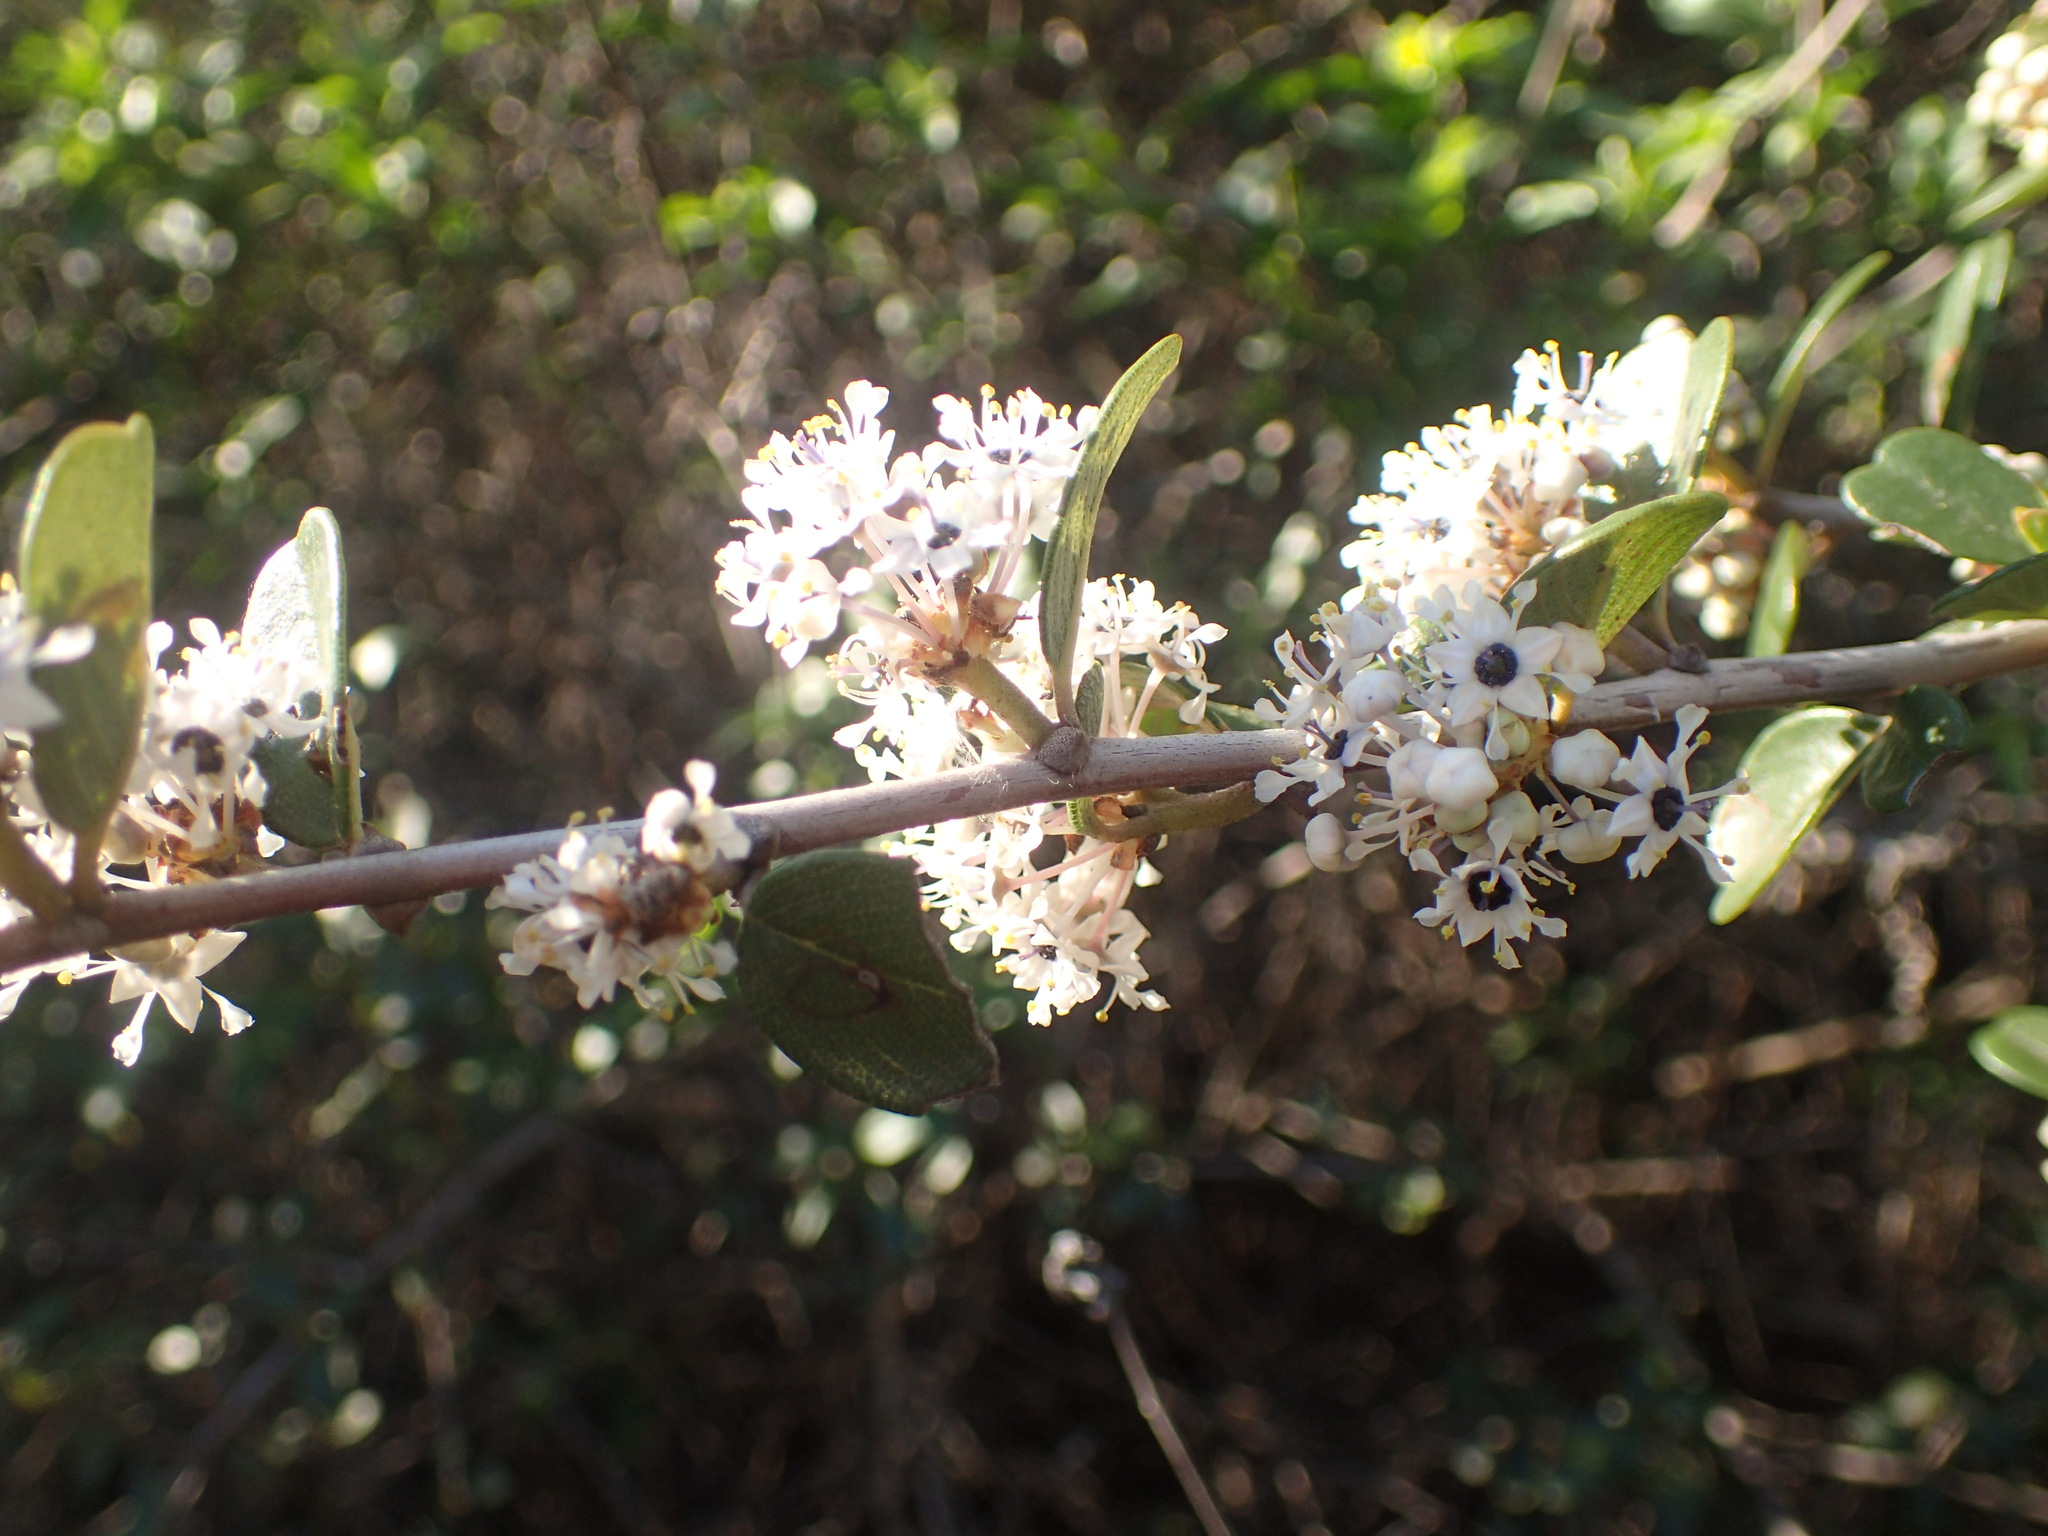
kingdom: Plantae
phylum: Tracheophyta
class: Magnoliopsida
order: Rosales
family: Rhamnaceae
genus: Ceanothus
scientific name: Ceanothus megacarpus
